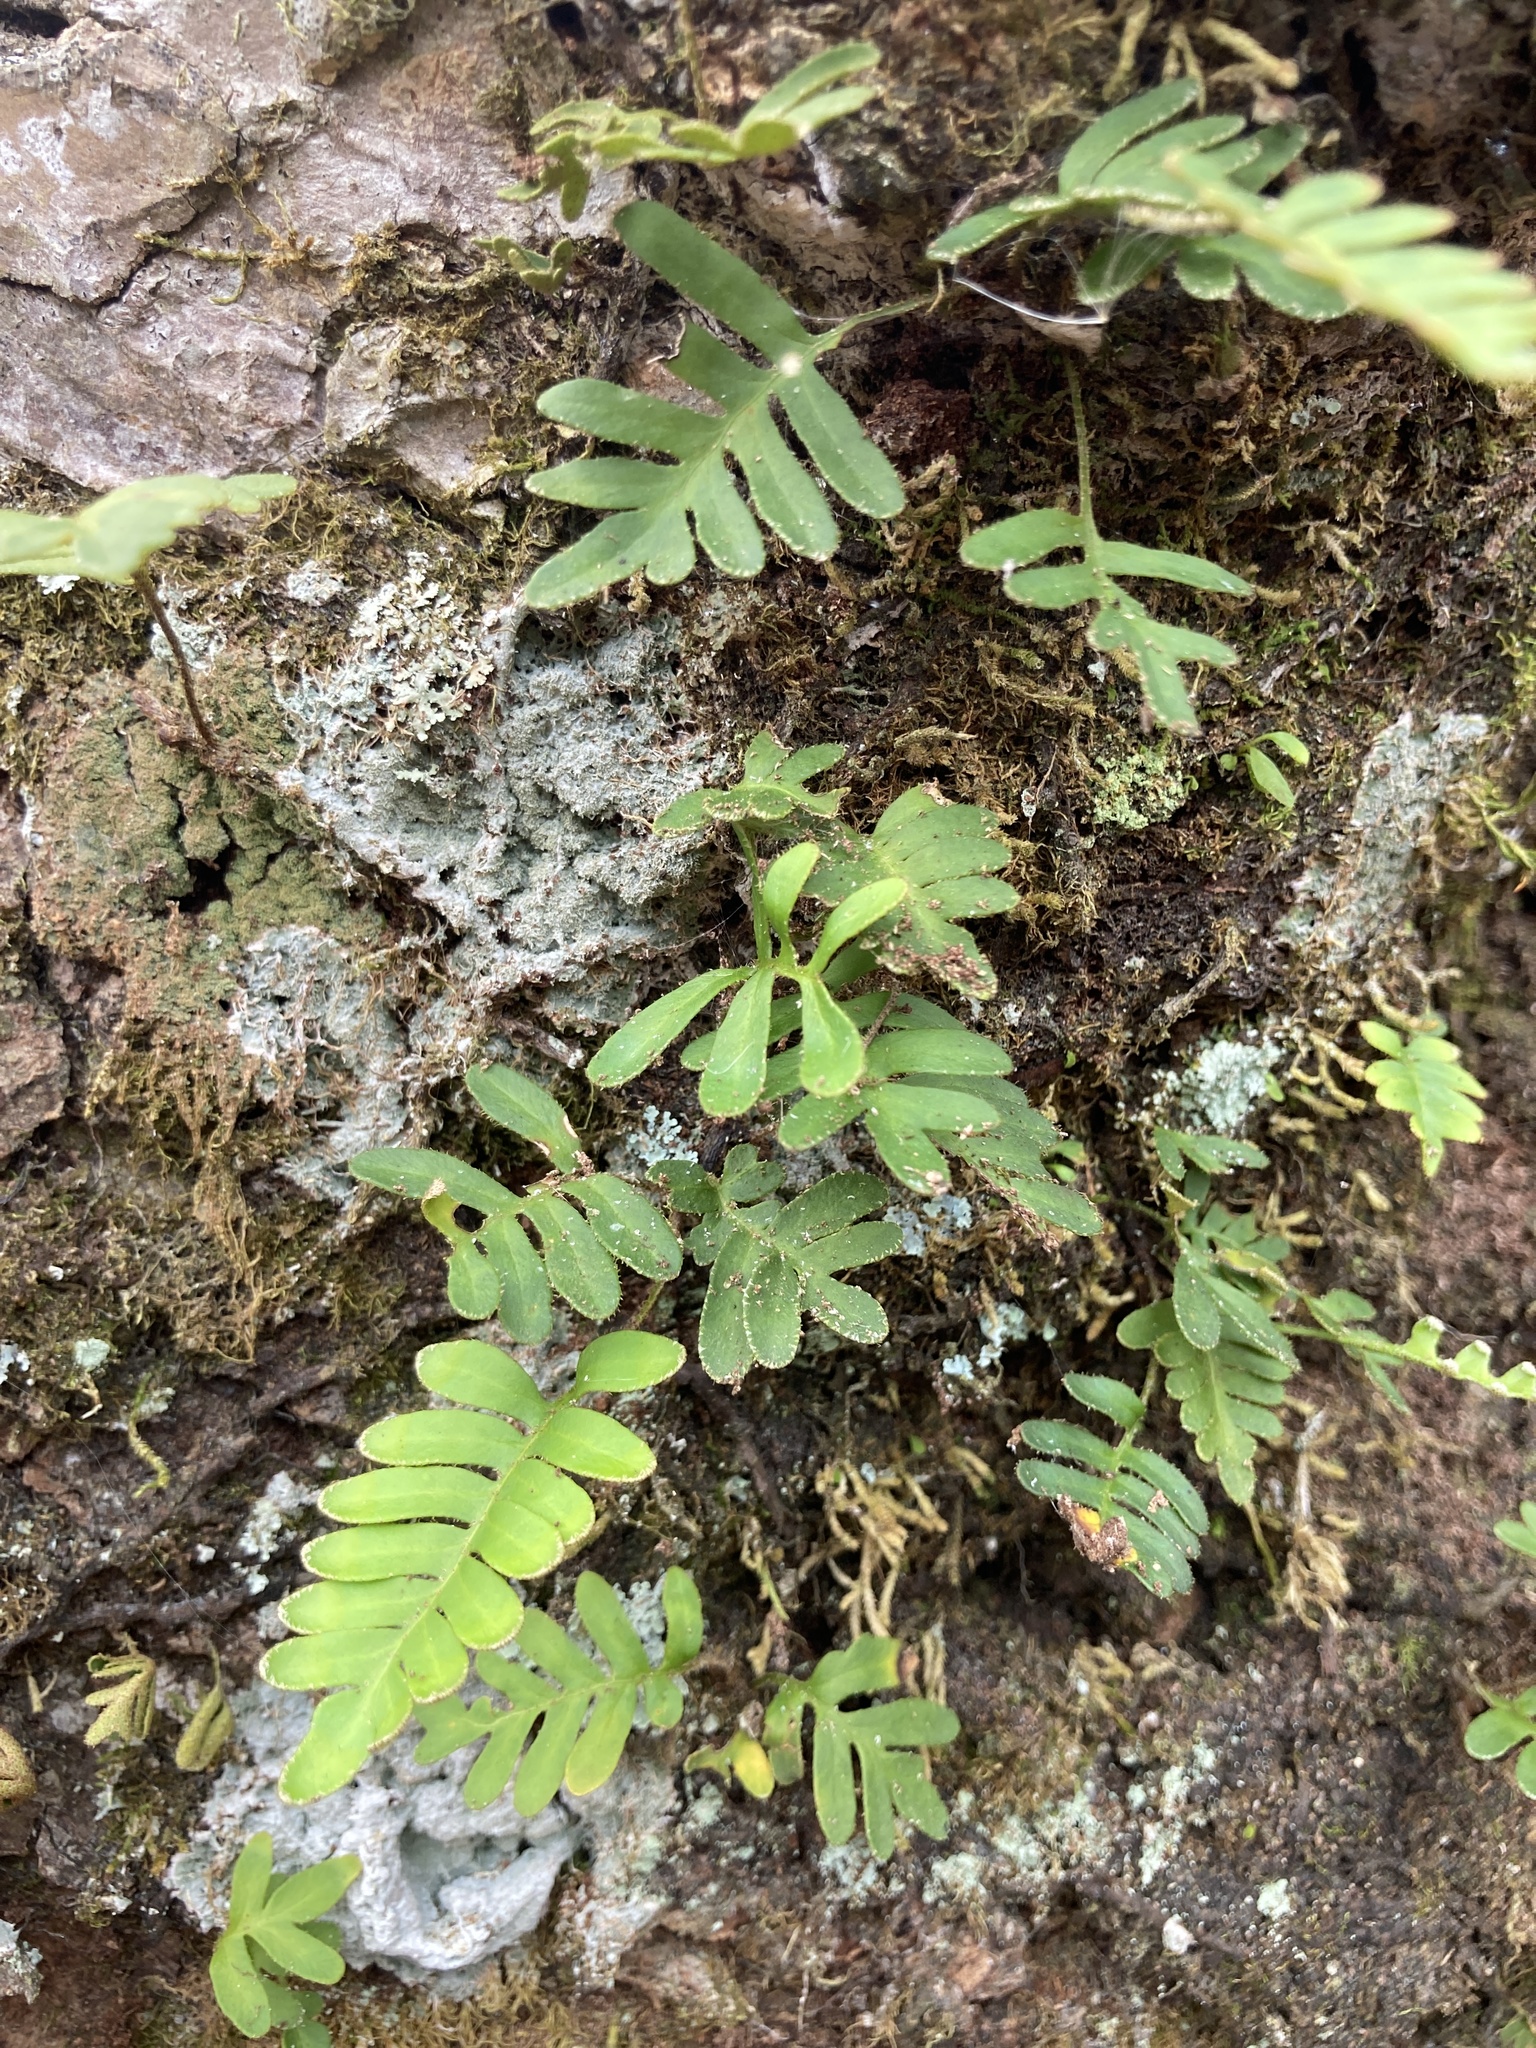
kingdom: Plantae
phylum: Tracheophyta
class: Polypodiopsida
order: Polypodiales
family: Polypodiaceae
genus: Pleopeltis
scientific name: Pleopeltis michauxiana
